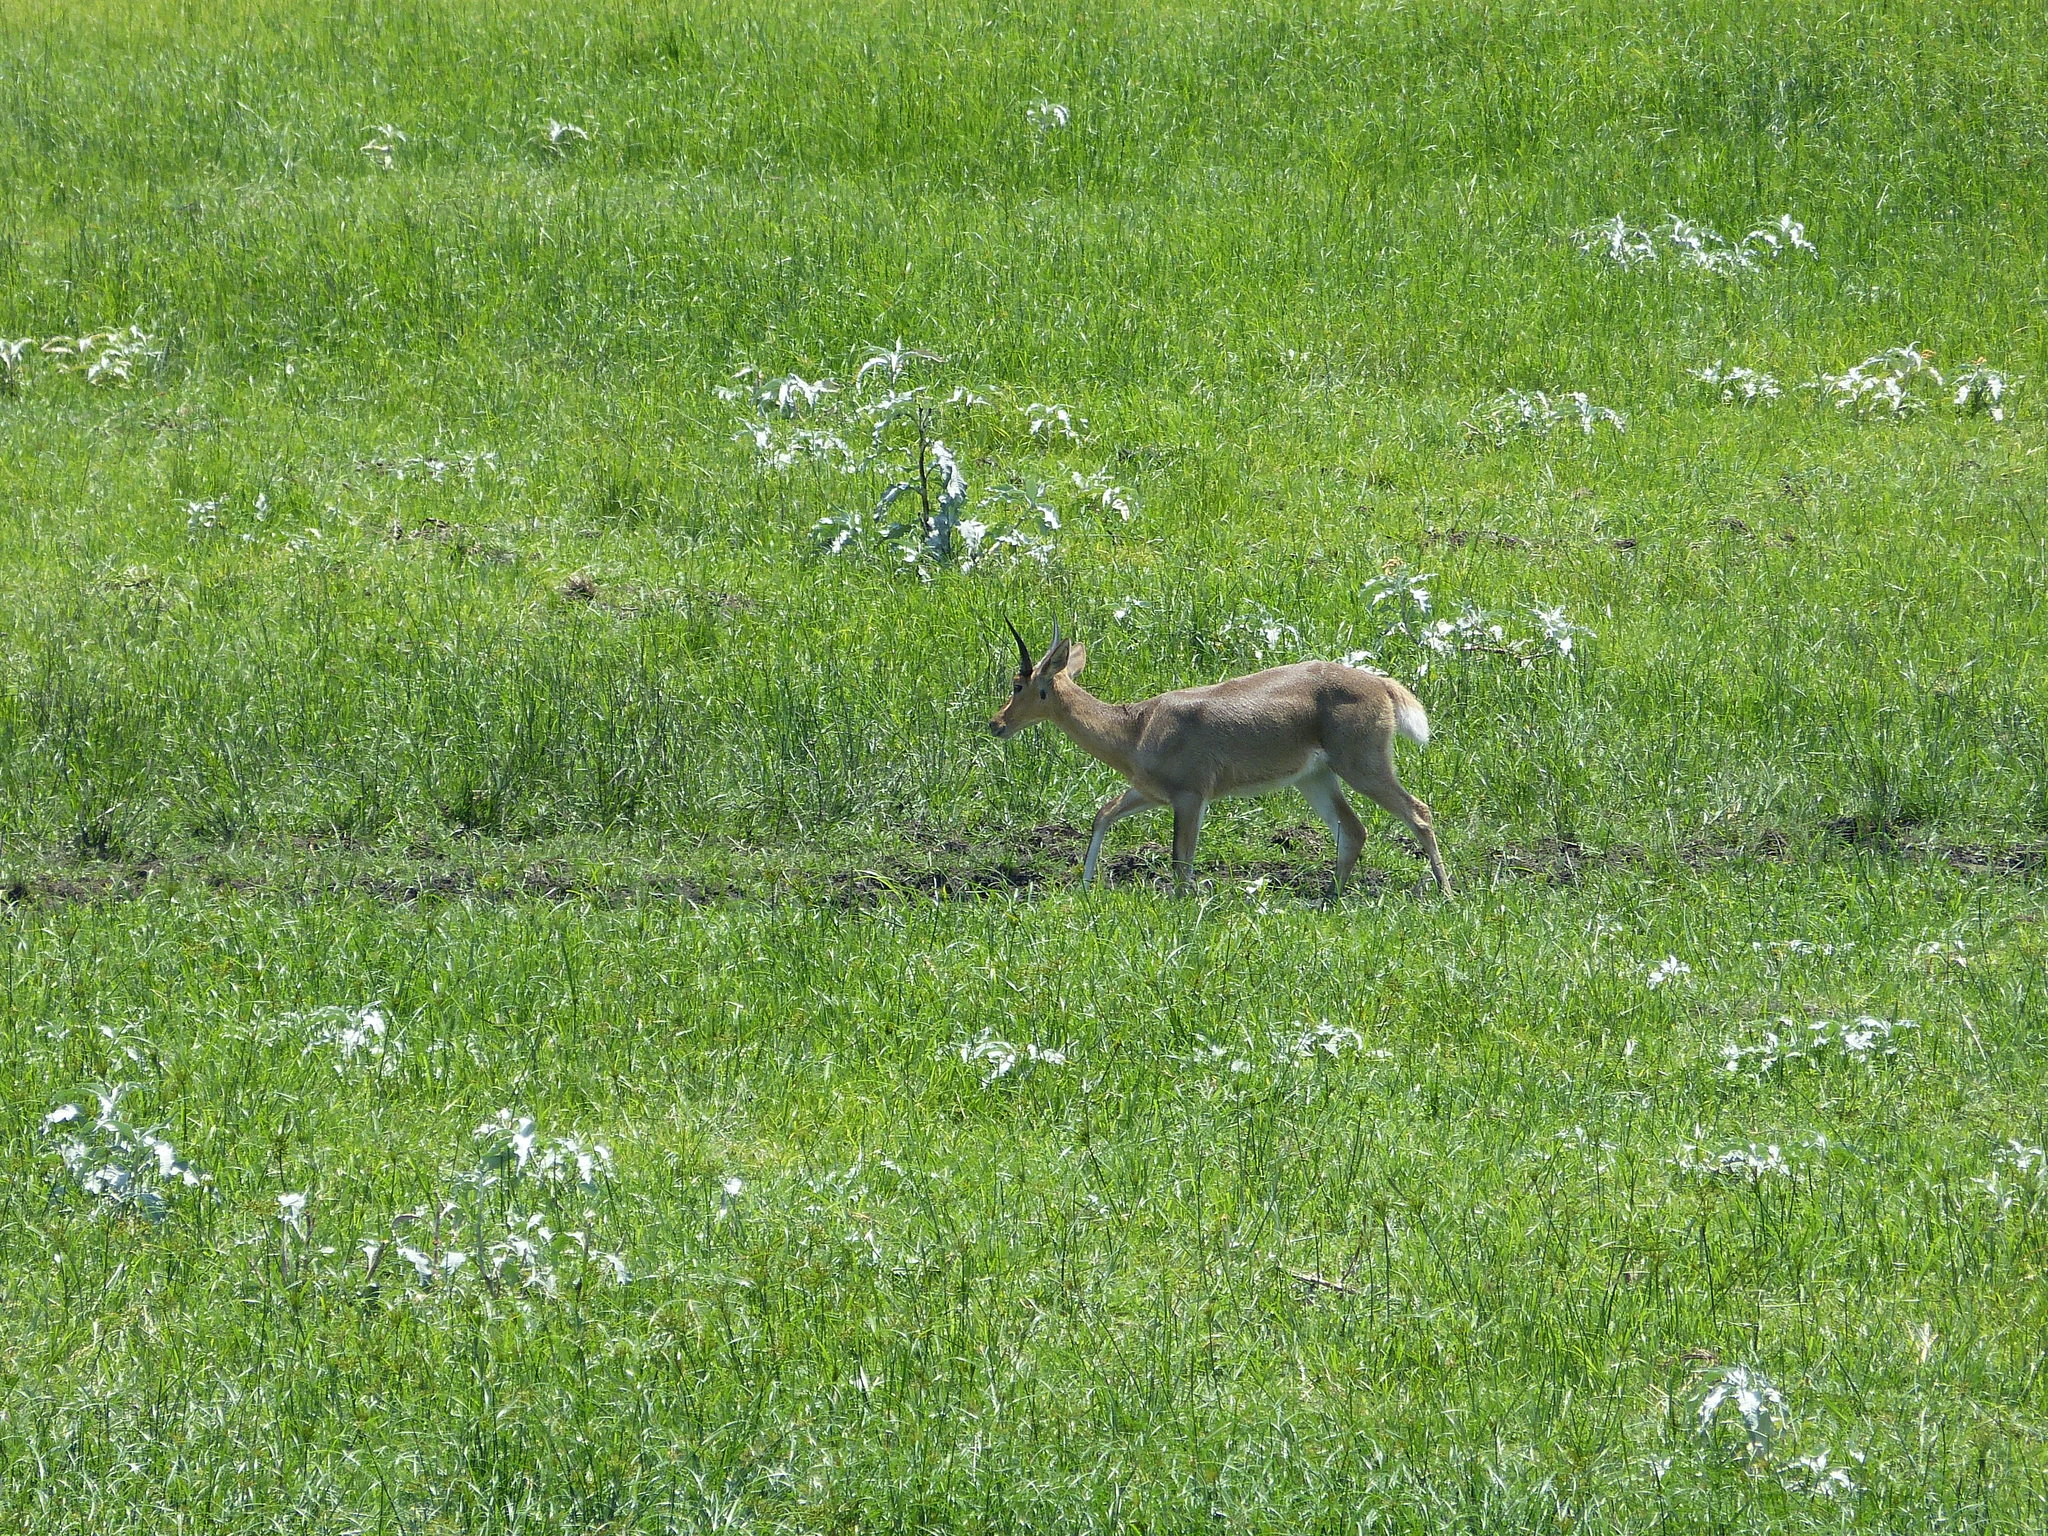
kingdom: Animalia
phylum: Chordata
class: Mammalia
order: Artiodactyla
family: Bovidae
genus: Redunca
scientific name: Redunca arundinum
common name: Southern reedbuck
